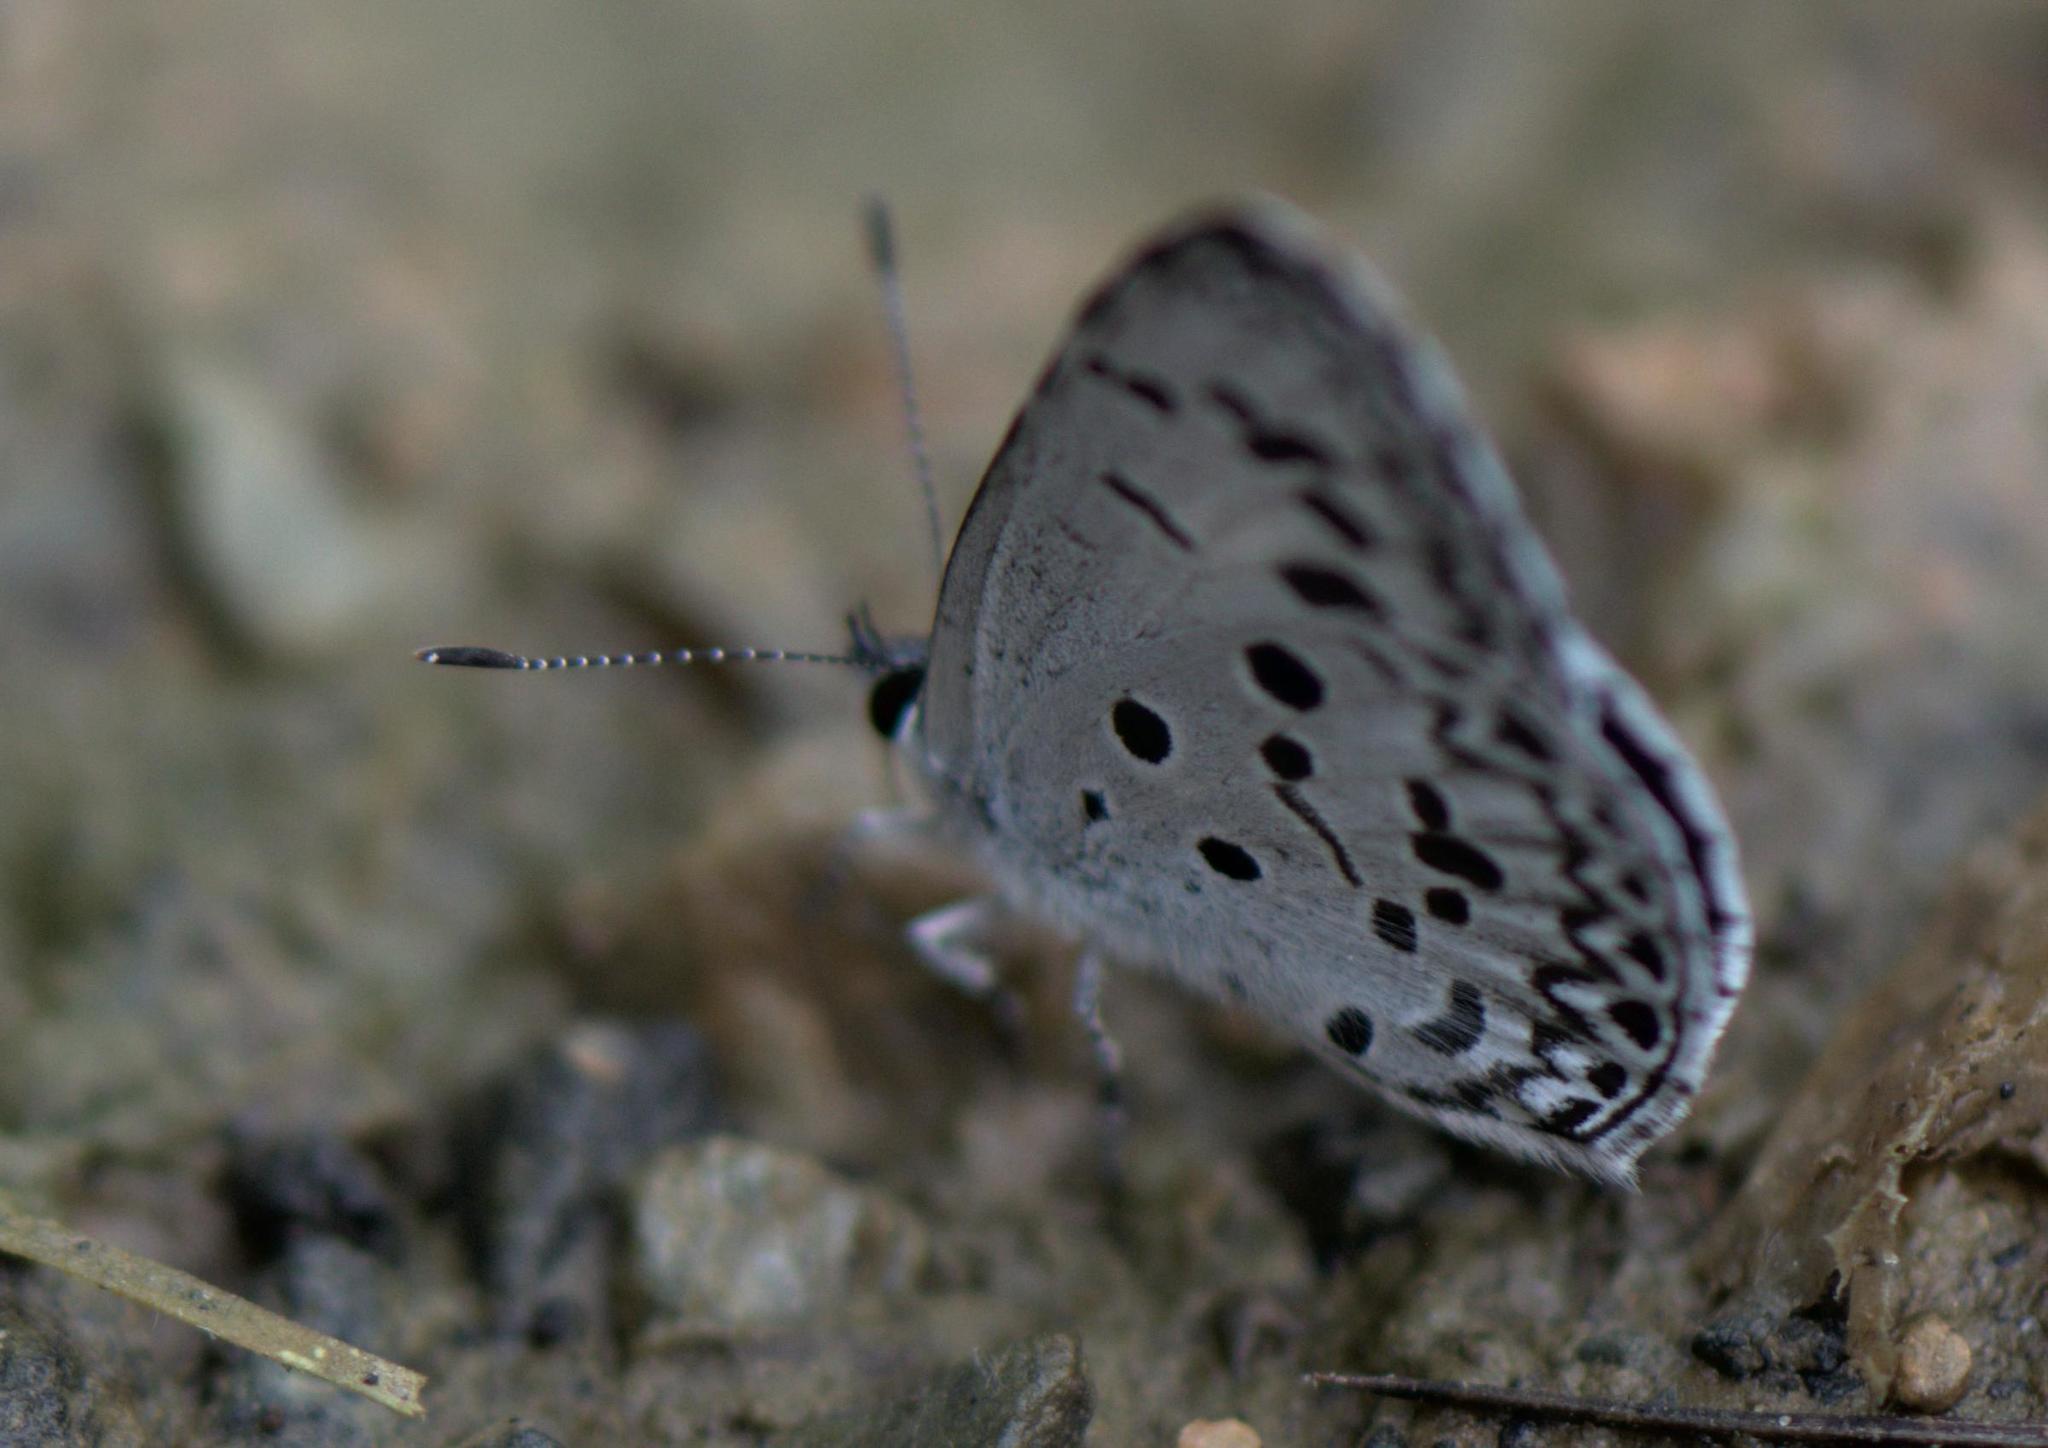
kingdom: Animalia
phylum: Arthropoda
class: Insecta
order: Lepidoptera
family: Lycaenidae
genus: Acytolepis
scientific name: Acytolepis puspa
